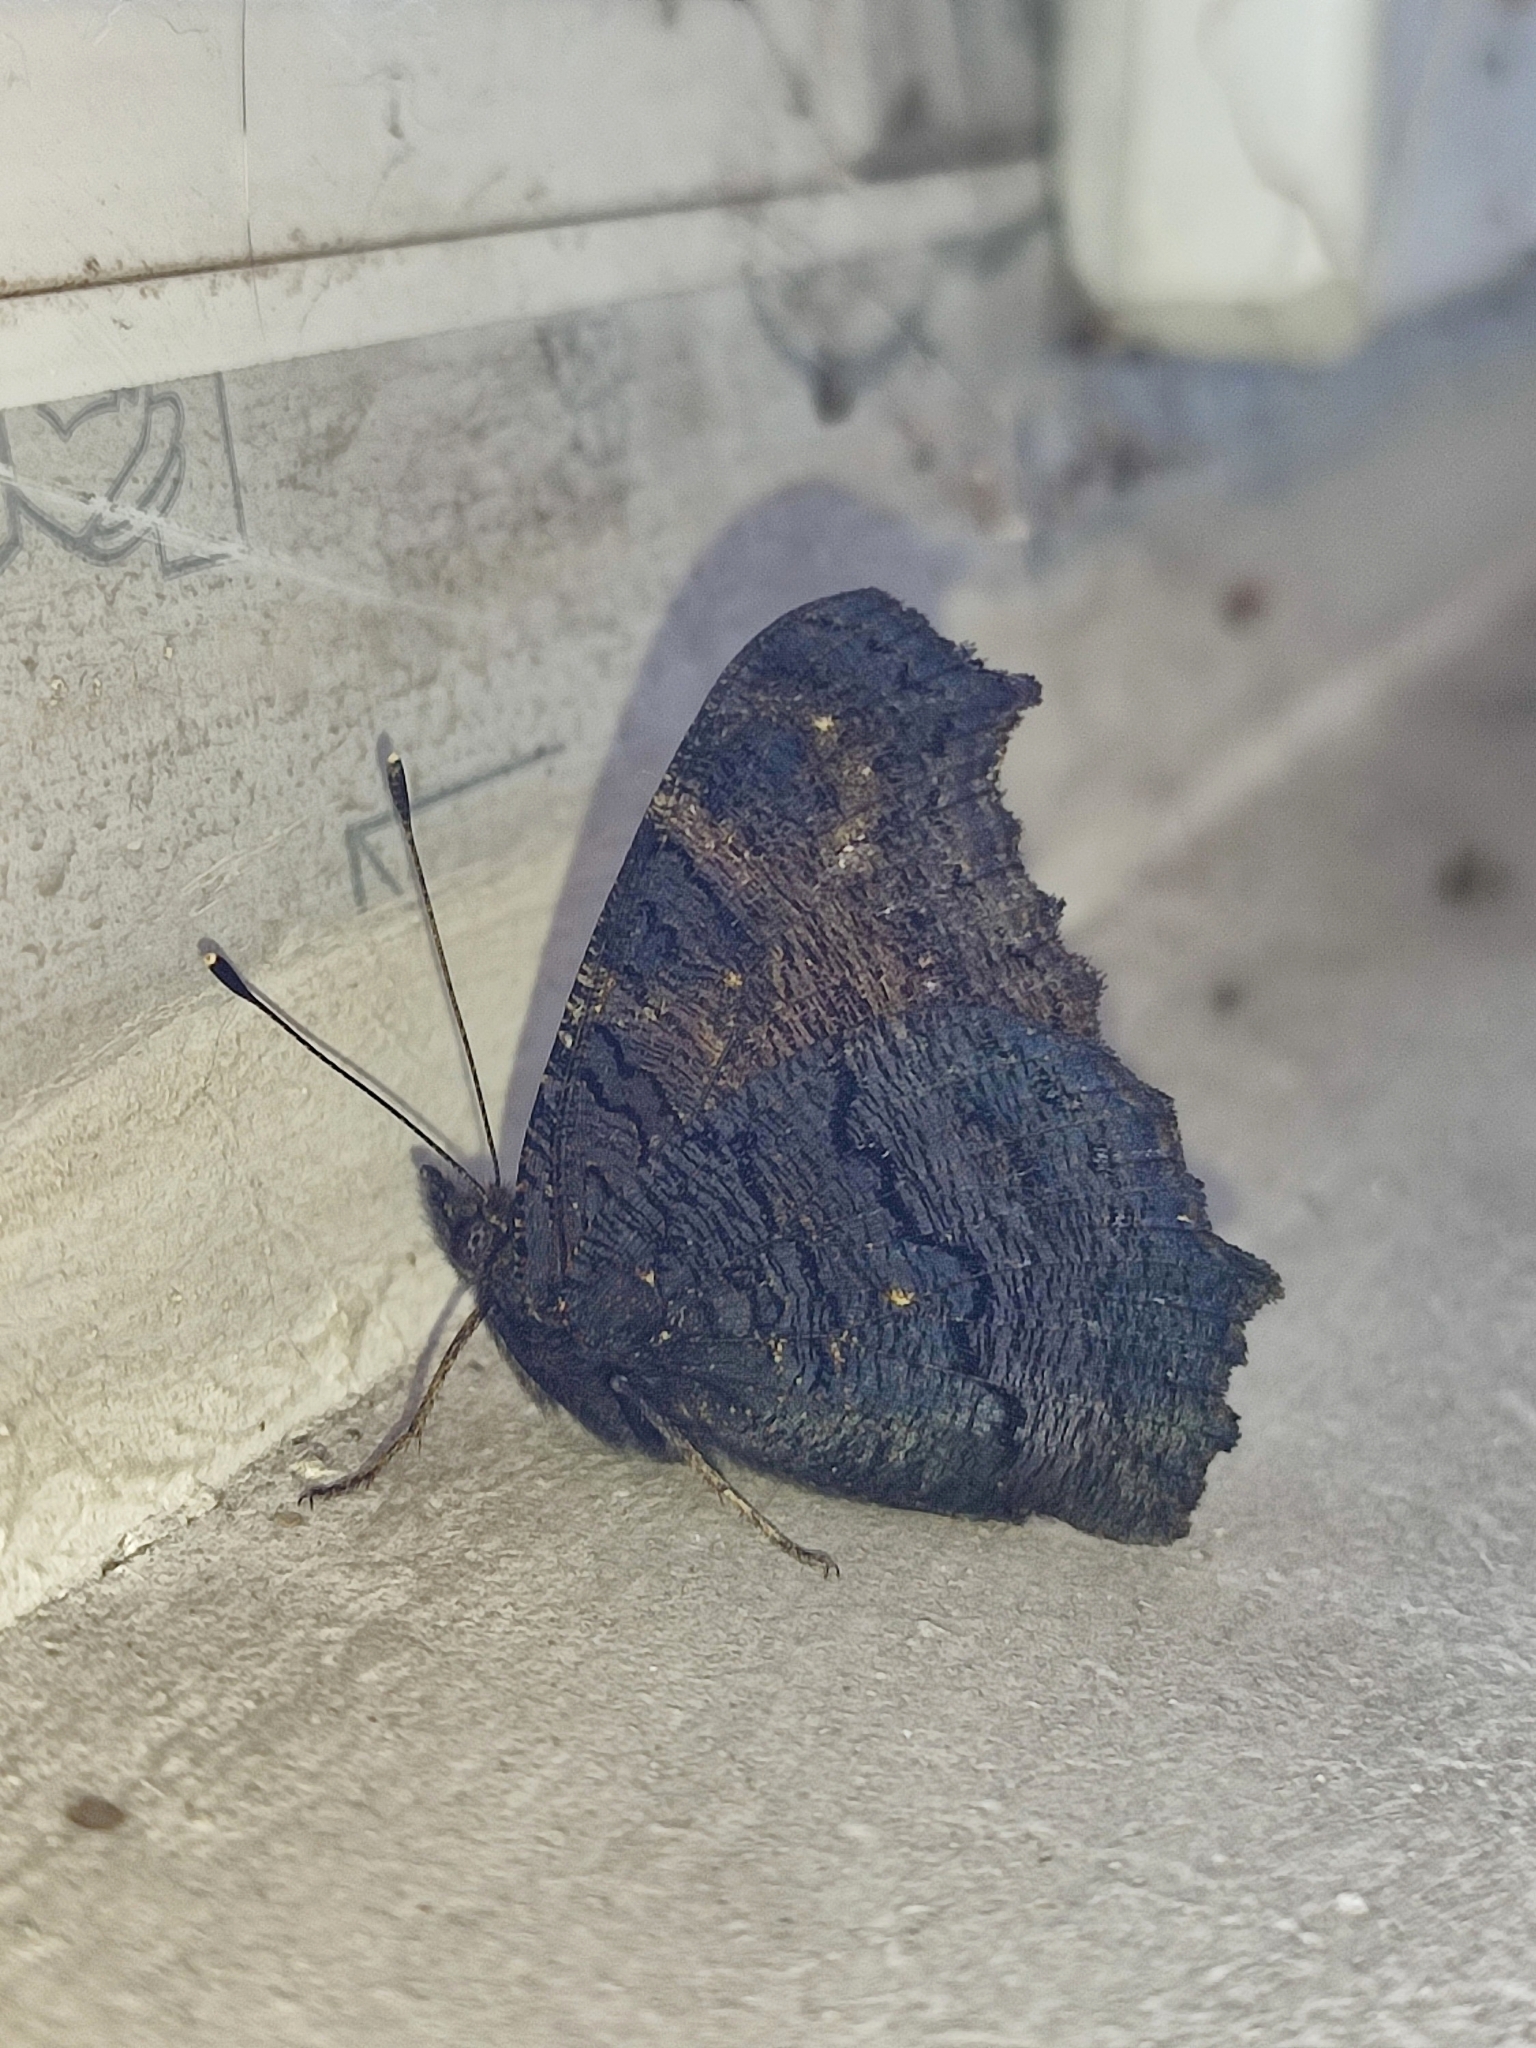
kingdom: Animalia
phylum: Arthropoda
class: Insecta
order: Lepidoptera
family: Nymphalidae
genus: Aglais
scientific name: Aglais io
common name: Peacock
